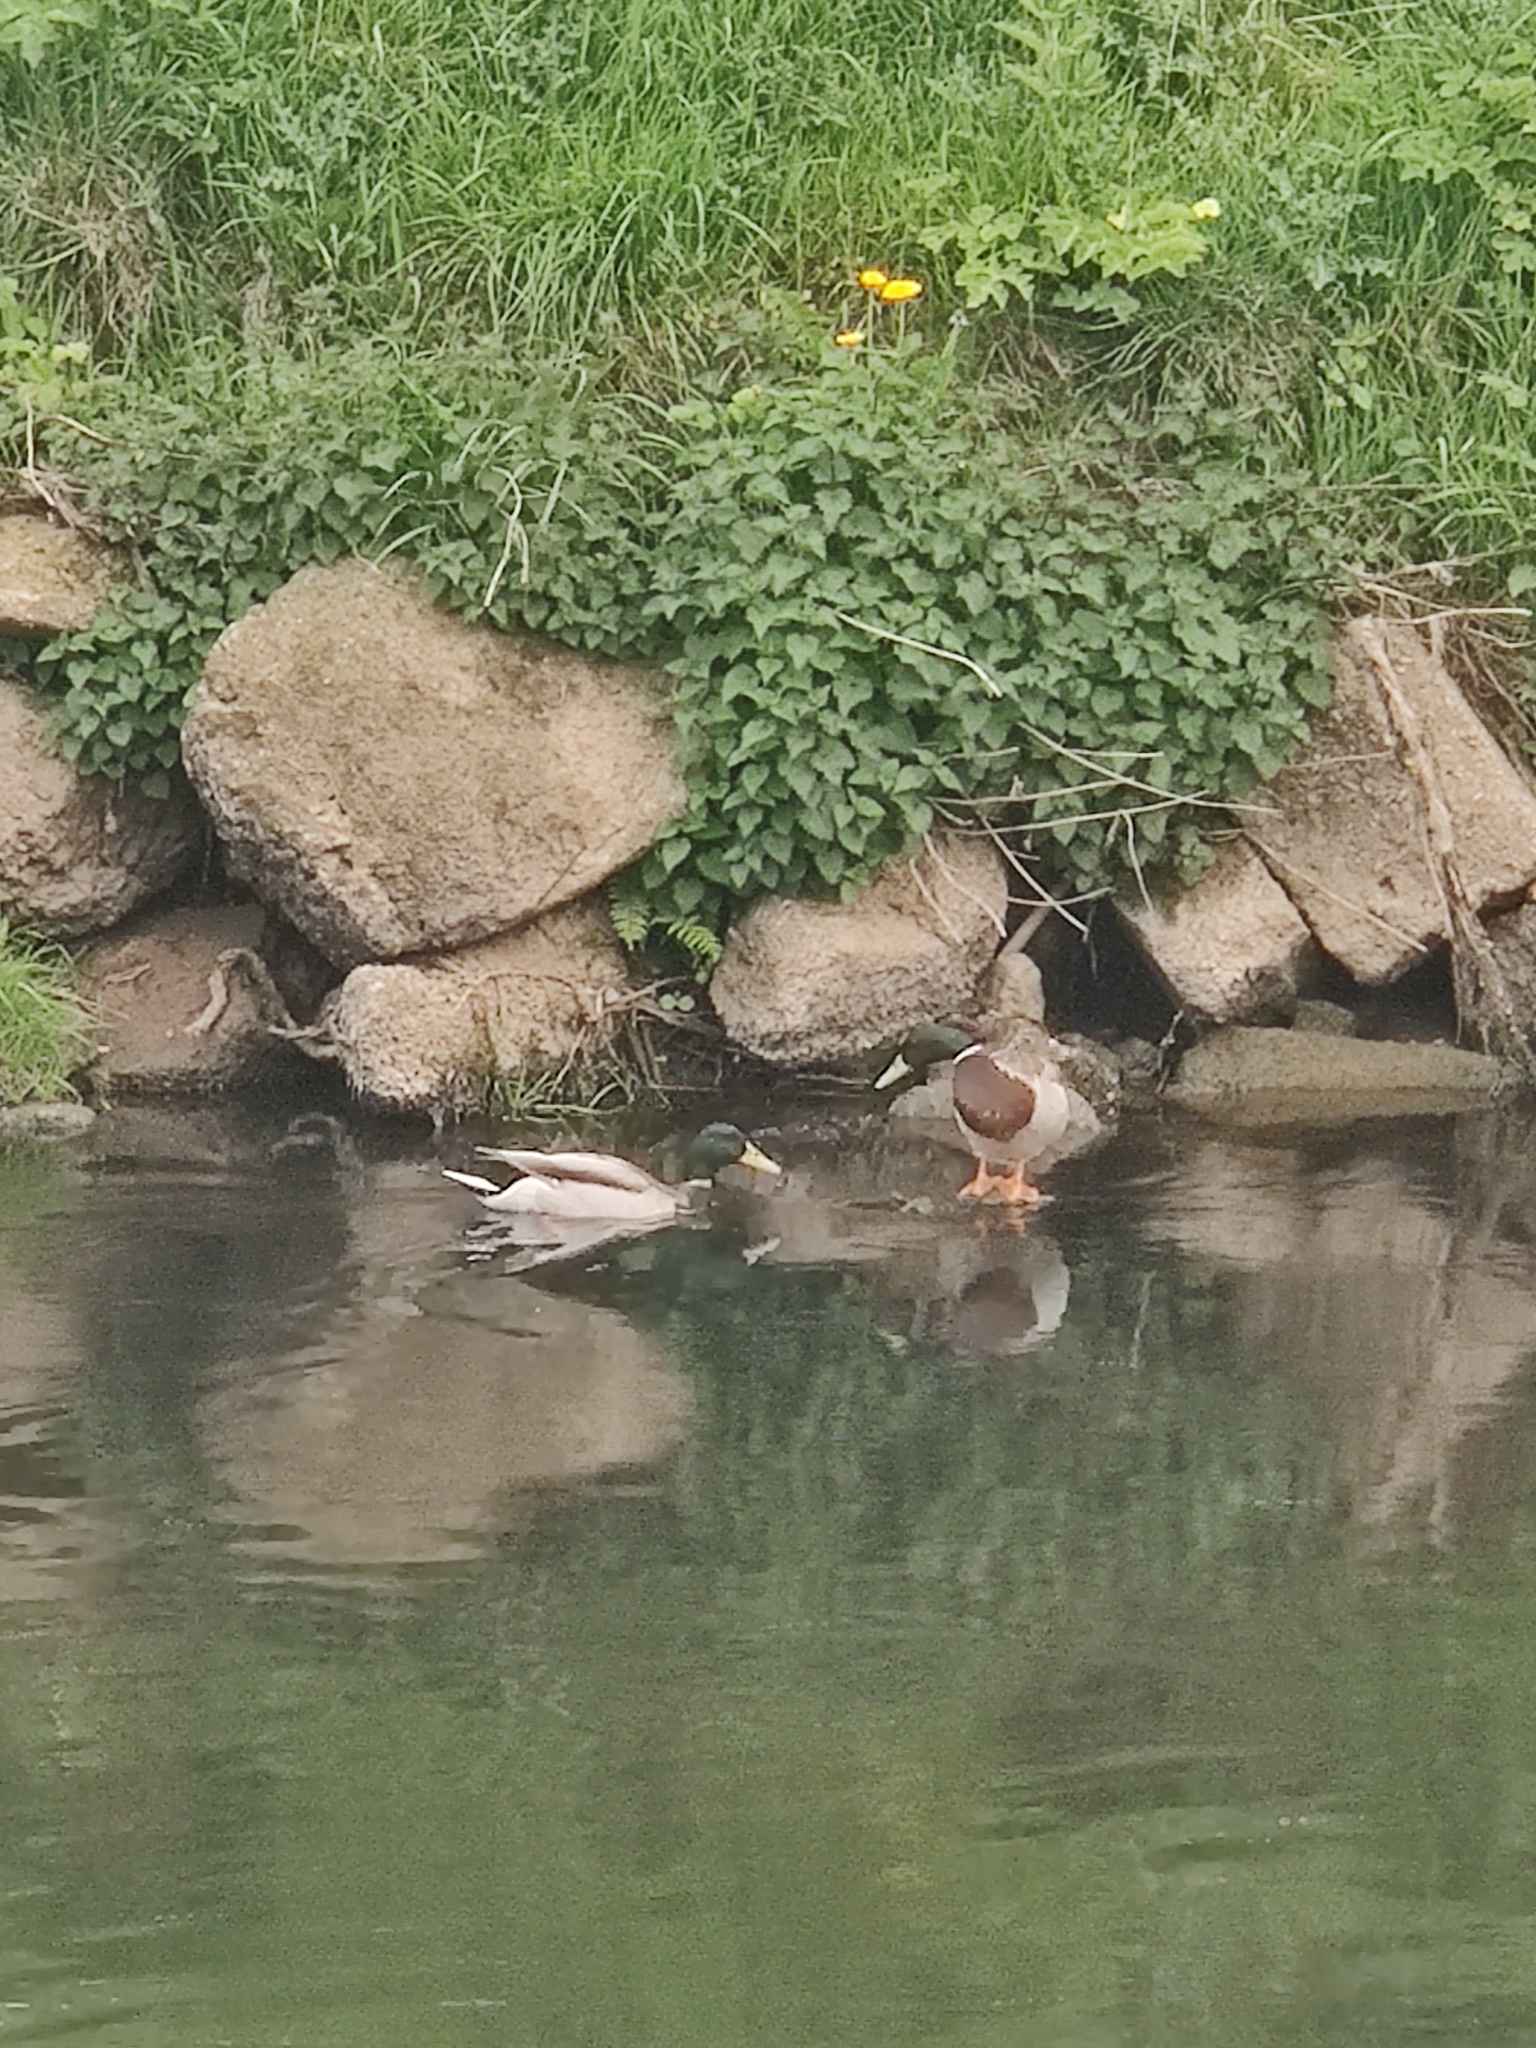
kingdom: Animalia
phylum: Chordata
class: Aves
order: Anseriformes
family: Anatidae
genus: Anas
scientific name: Anas platyrhynchos
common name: Mallard
